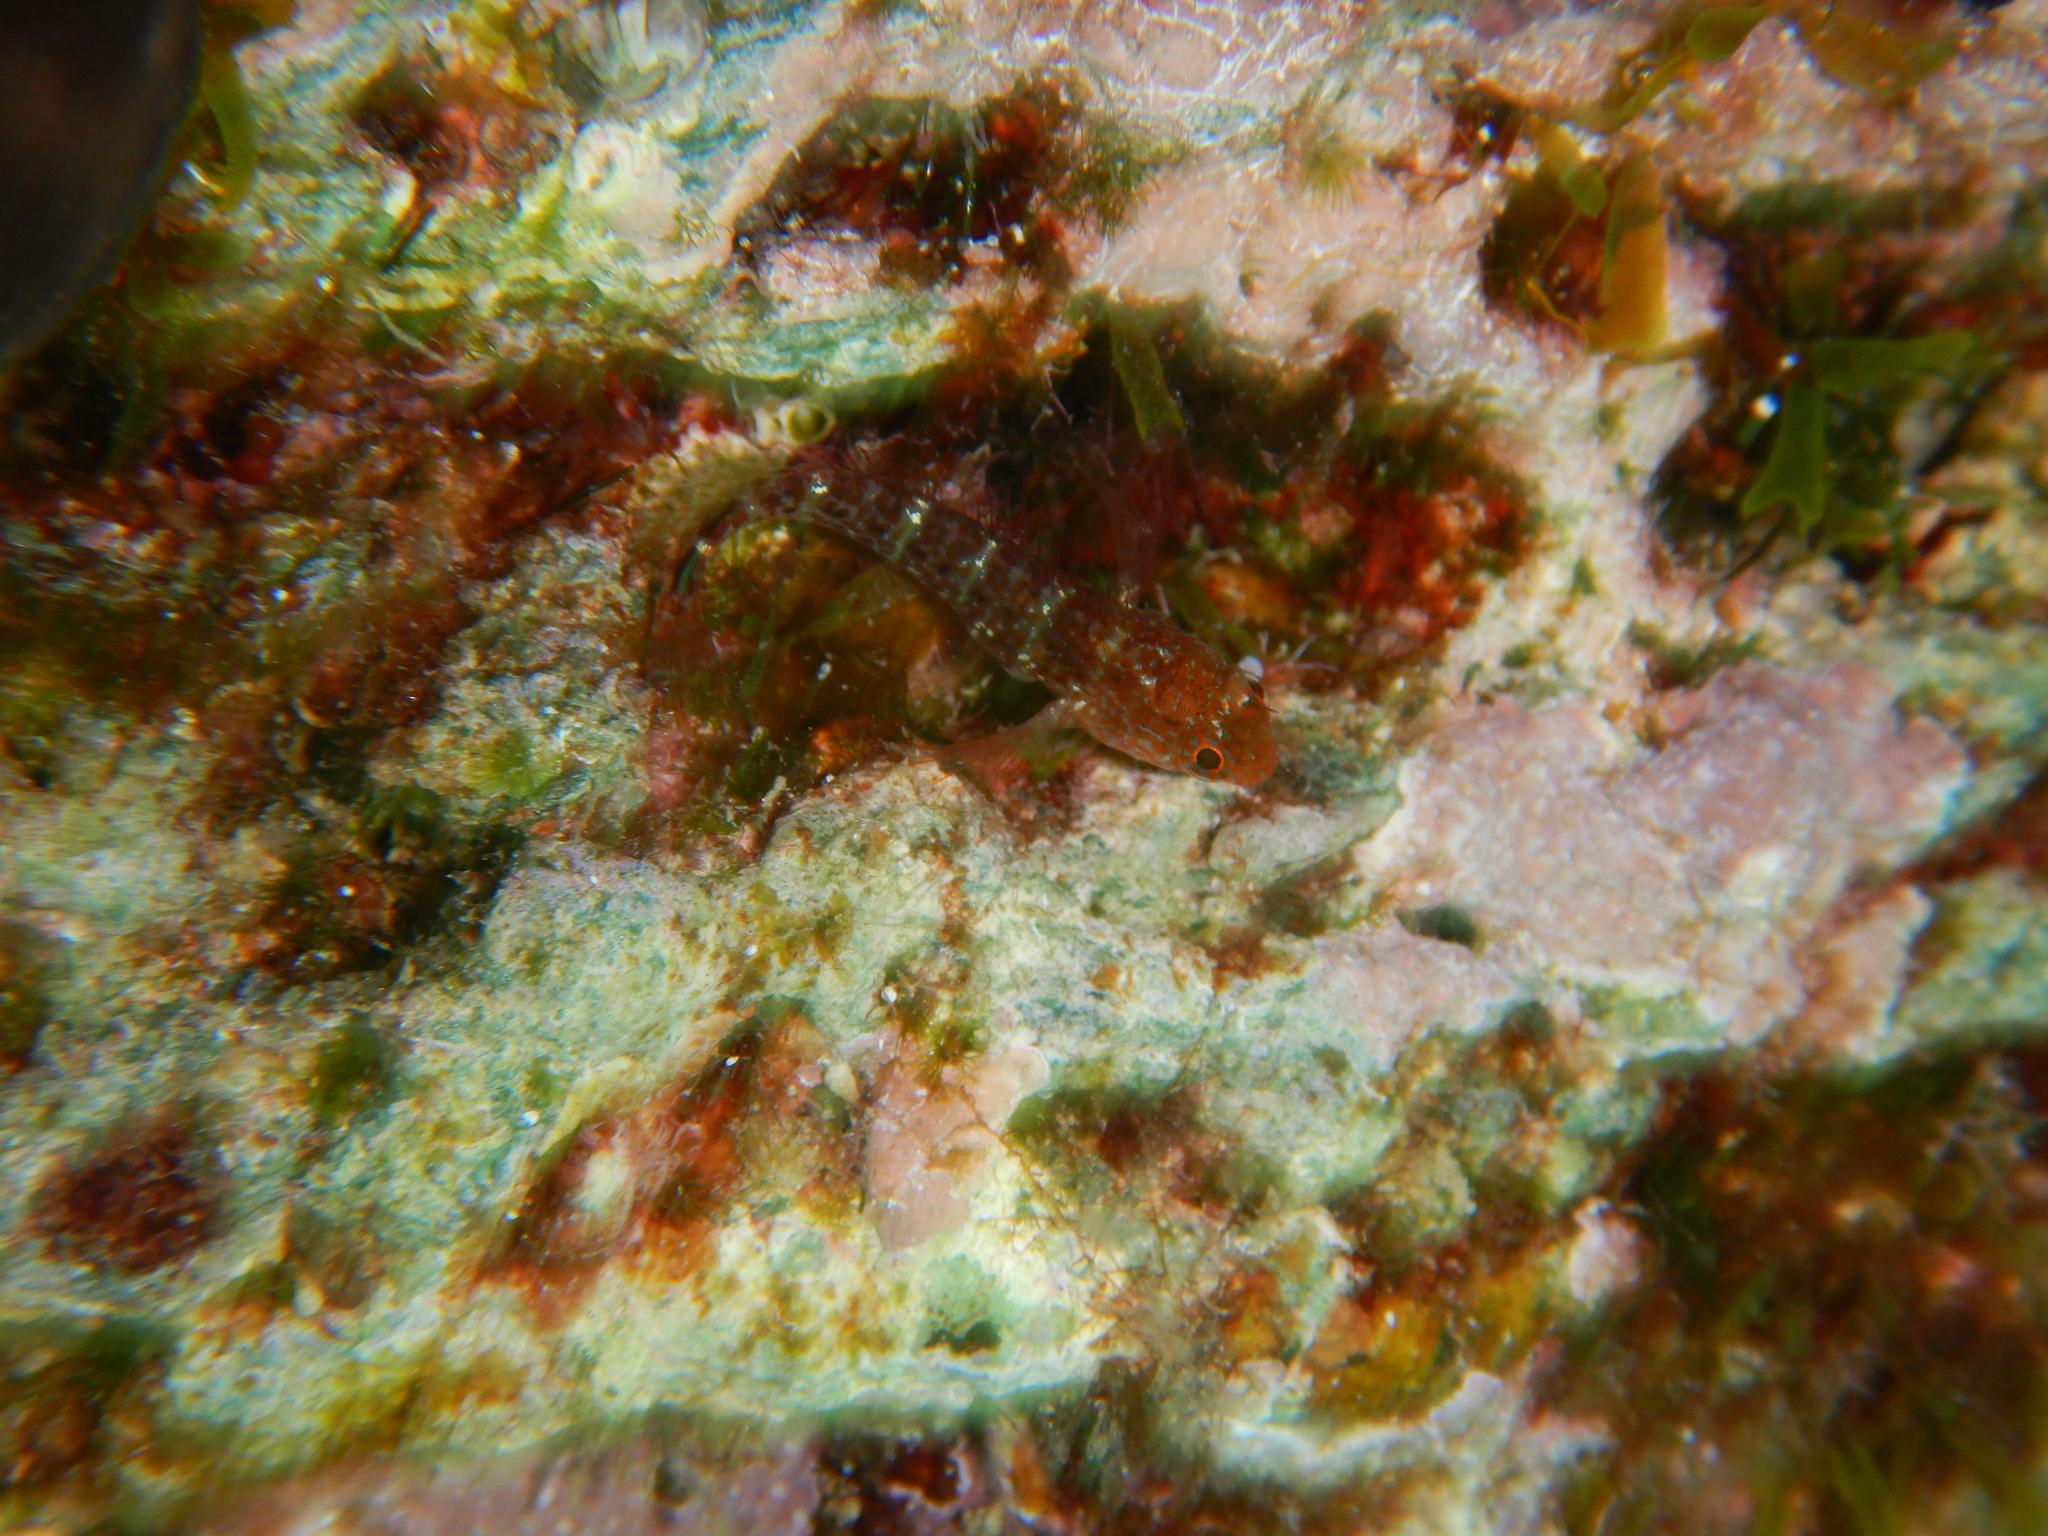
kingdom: Animalia
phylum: Chordata
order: Perciformes
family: Blenniidae
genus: Parablennius
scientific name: Parablennius zvonimiri
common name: Red blenny
